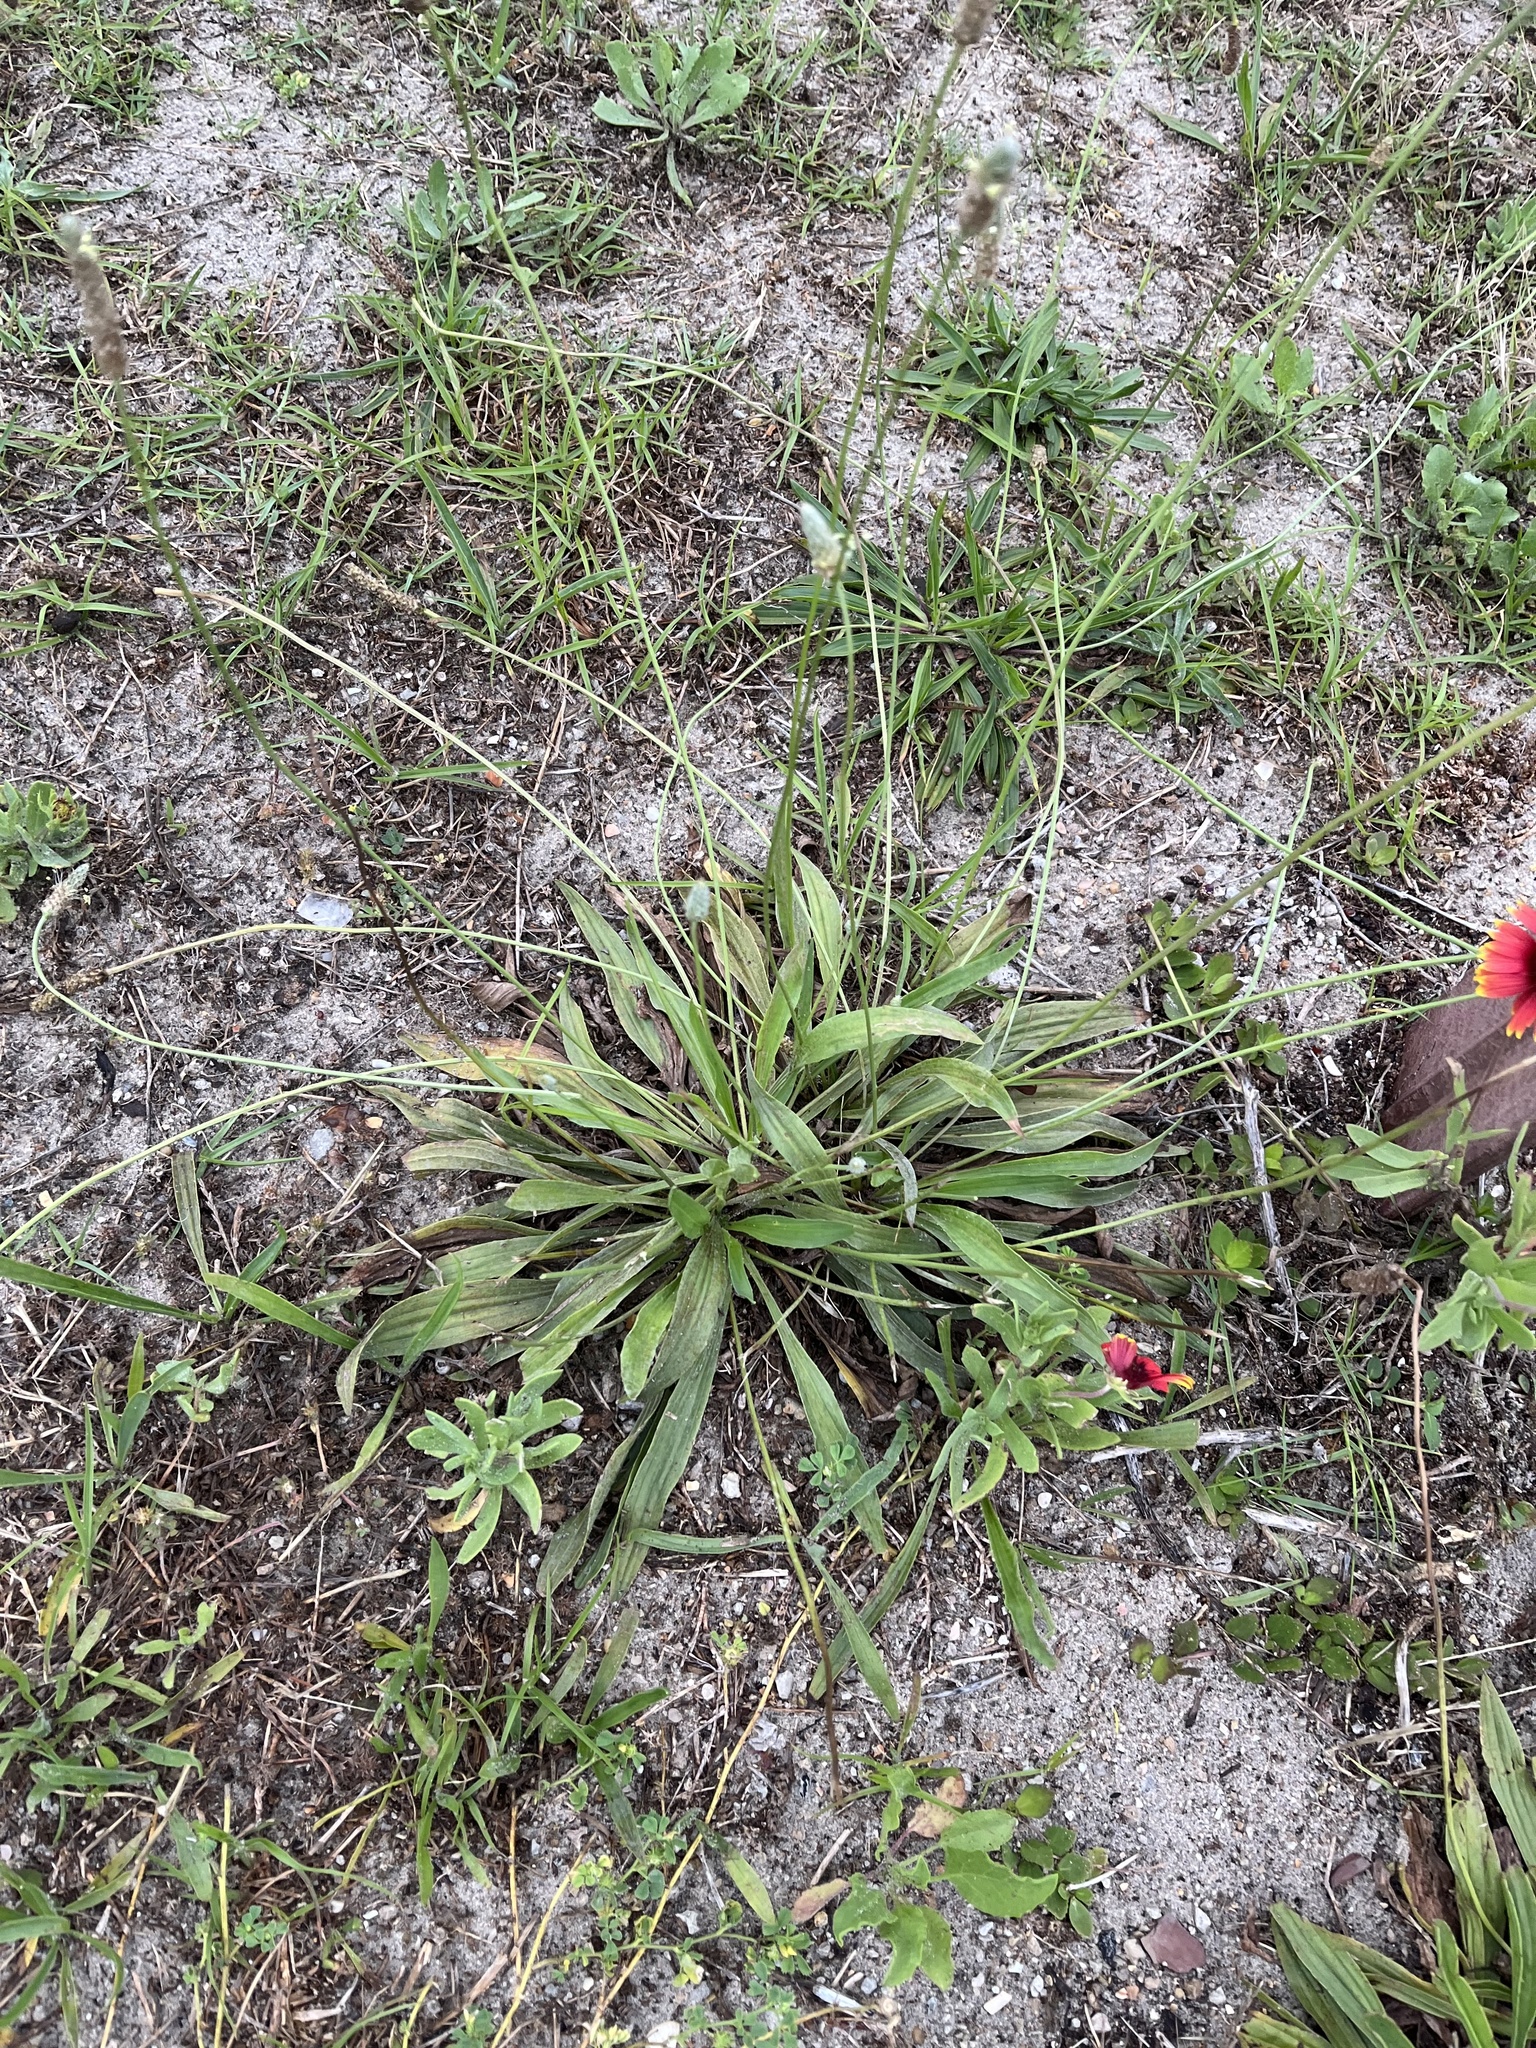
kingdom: Plantae
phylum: Tracheophyta
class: Magnoliopsida
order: Asterales
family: Asteraceae
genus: Gaillardia
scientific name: Gaillardia pulchella
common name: Firewheel
